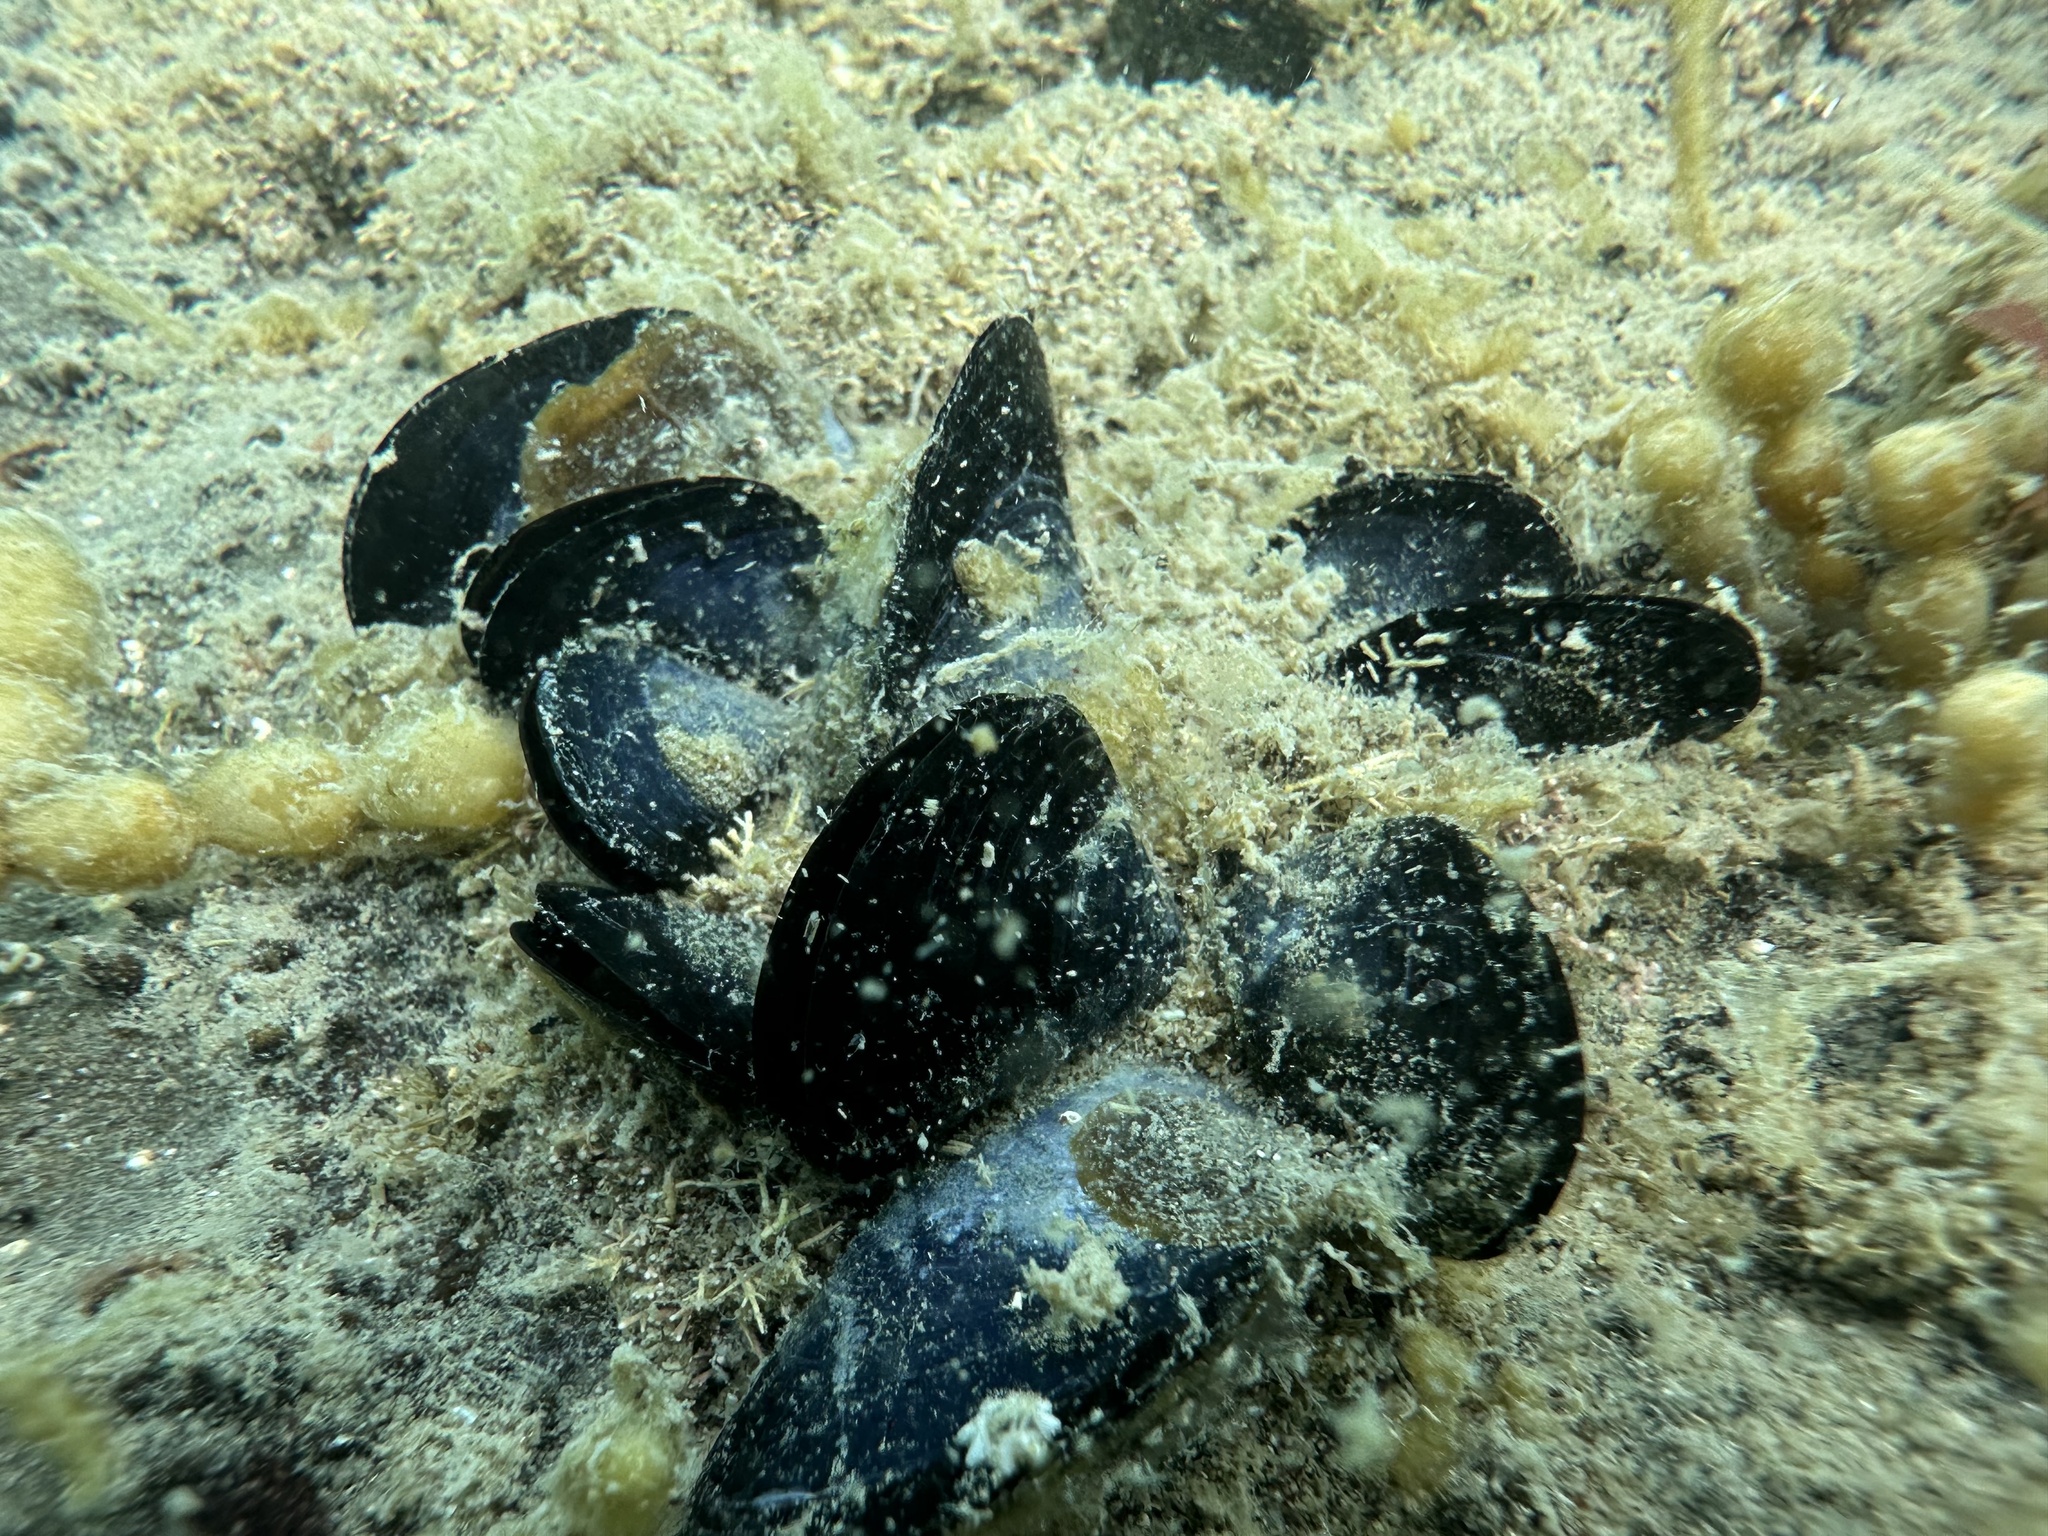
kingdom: Animalia
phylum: Mollusca
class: Bivalvia
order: Mytilida
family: Mytilidae
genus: Mytilus
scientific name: Mytilus planulatus
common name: Australian mussel
